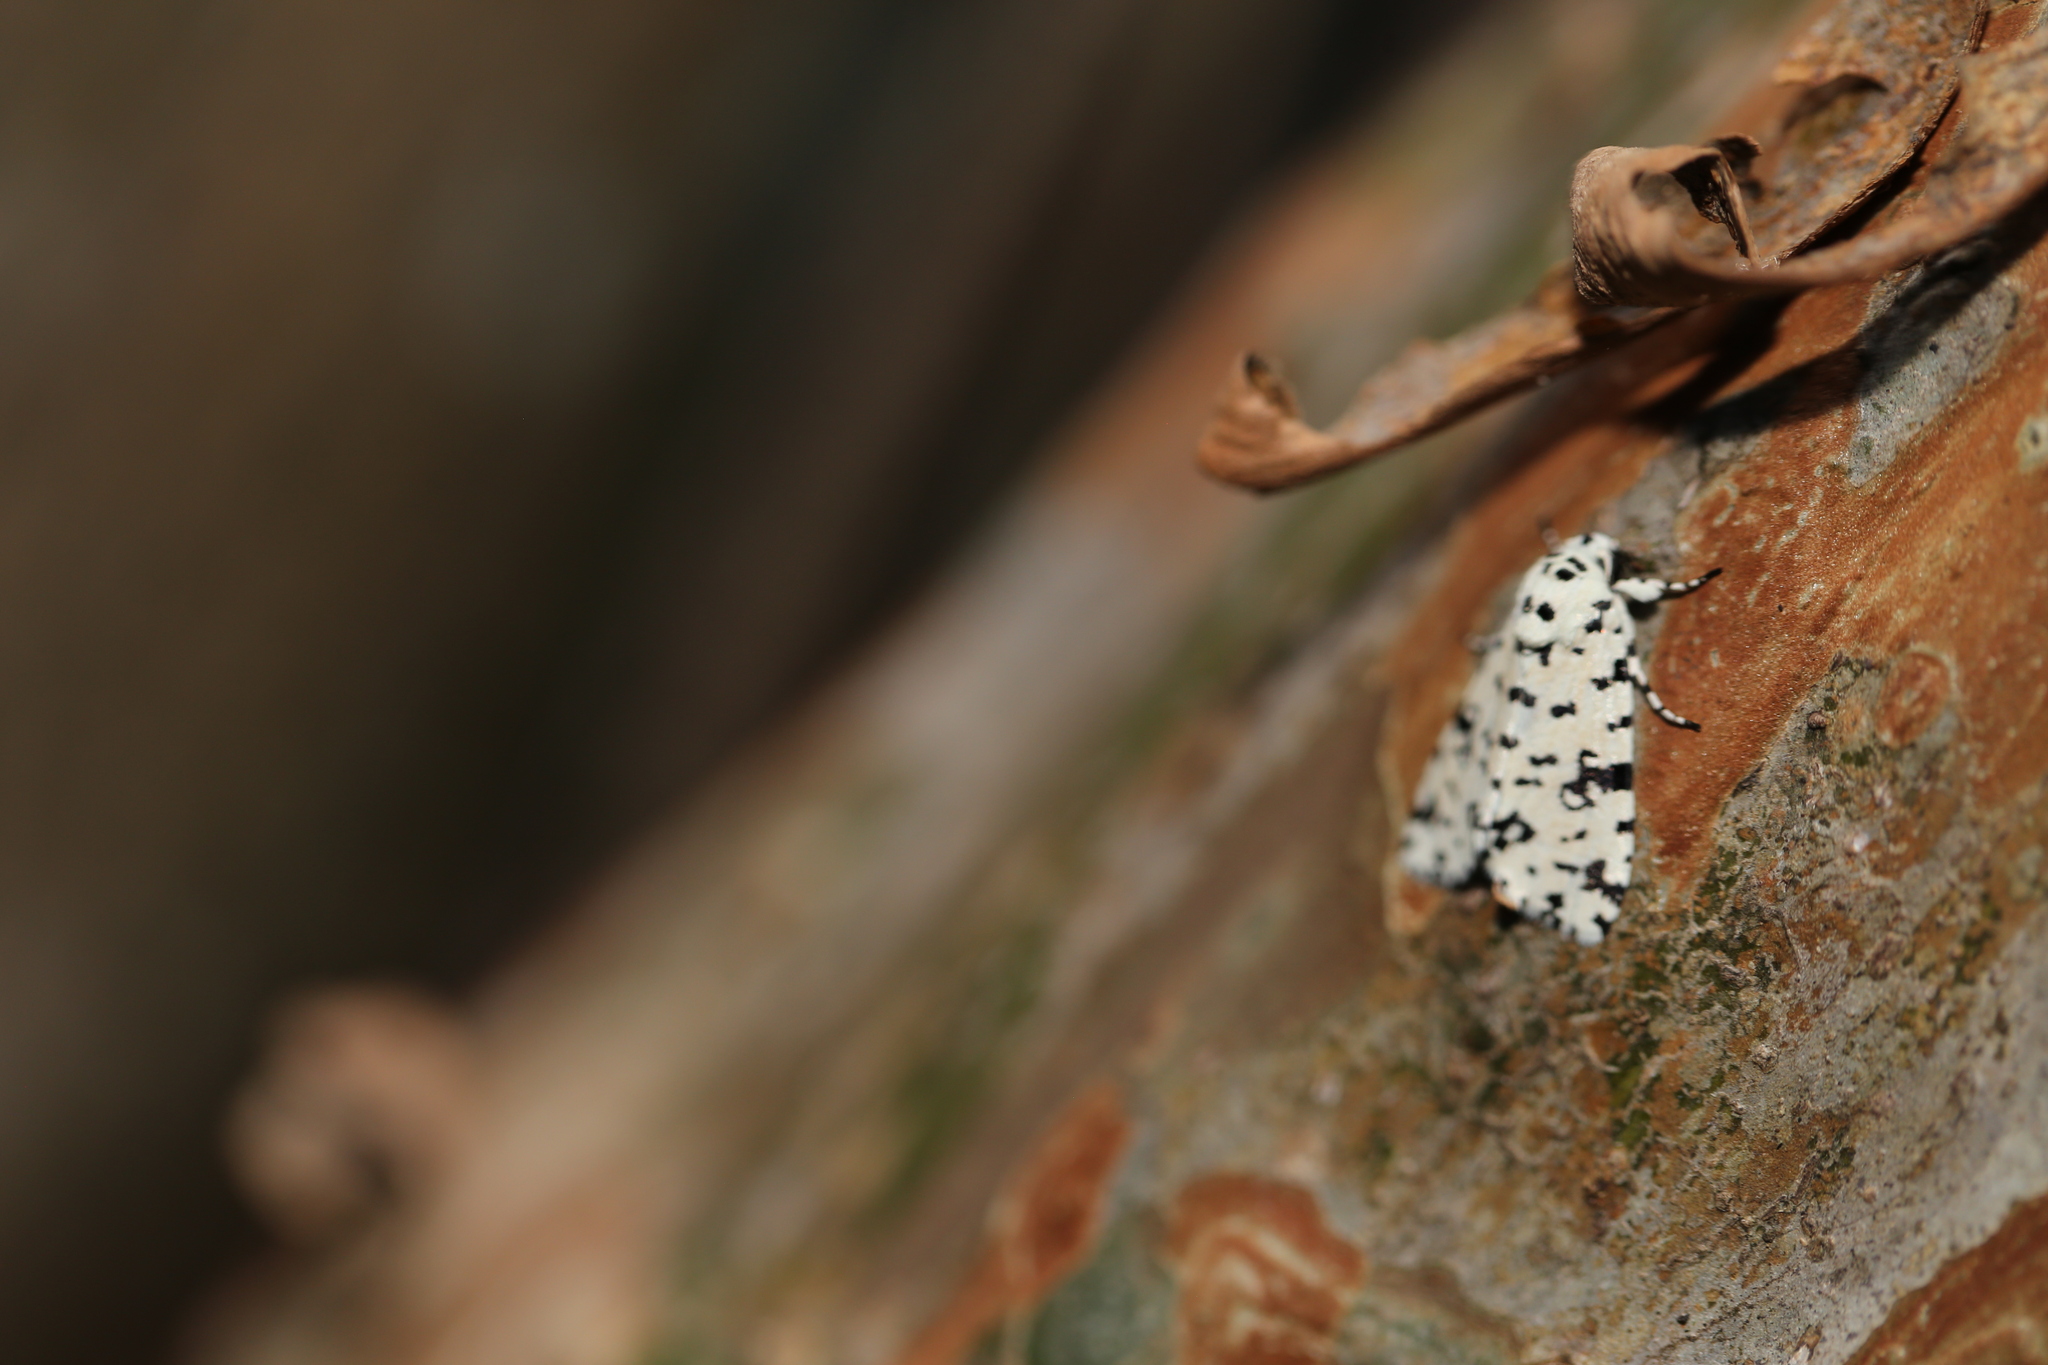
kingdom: Animalia
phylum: Arthropoda
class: Insecta
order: Lepidoptera
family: Noctuidae
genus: Thalatha
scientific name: Thalatha guttalis
